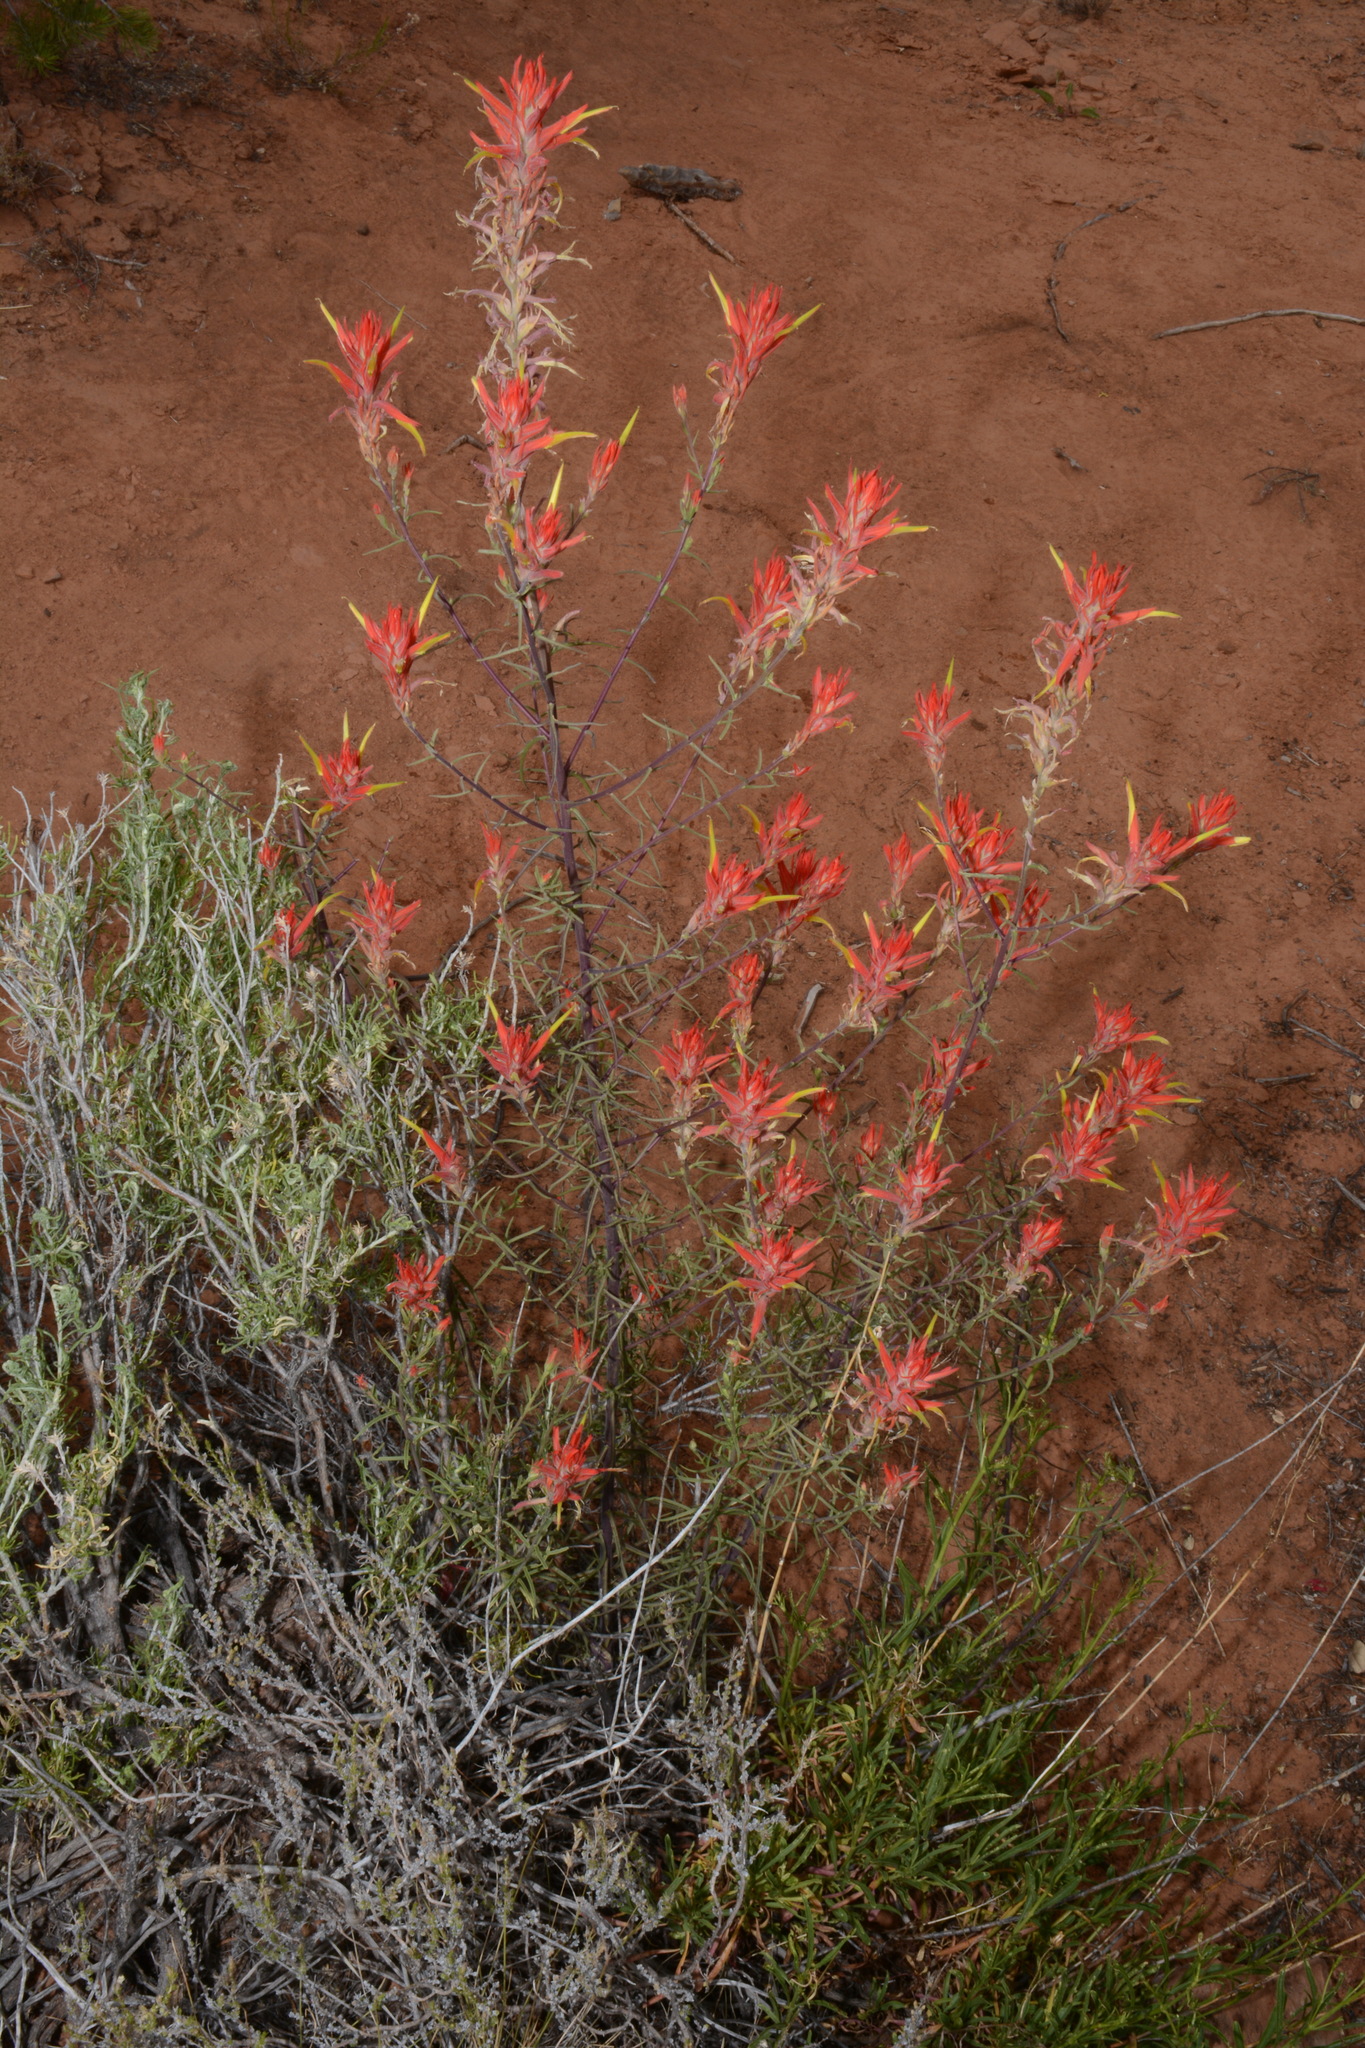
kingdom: Plantae
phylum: Tracheophyta
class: Magnoliopsida
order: Lamiales
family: Orobanchaceae
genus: Castilleja
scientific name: Castilleja linariifolia
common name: Wyoming paintbrush
